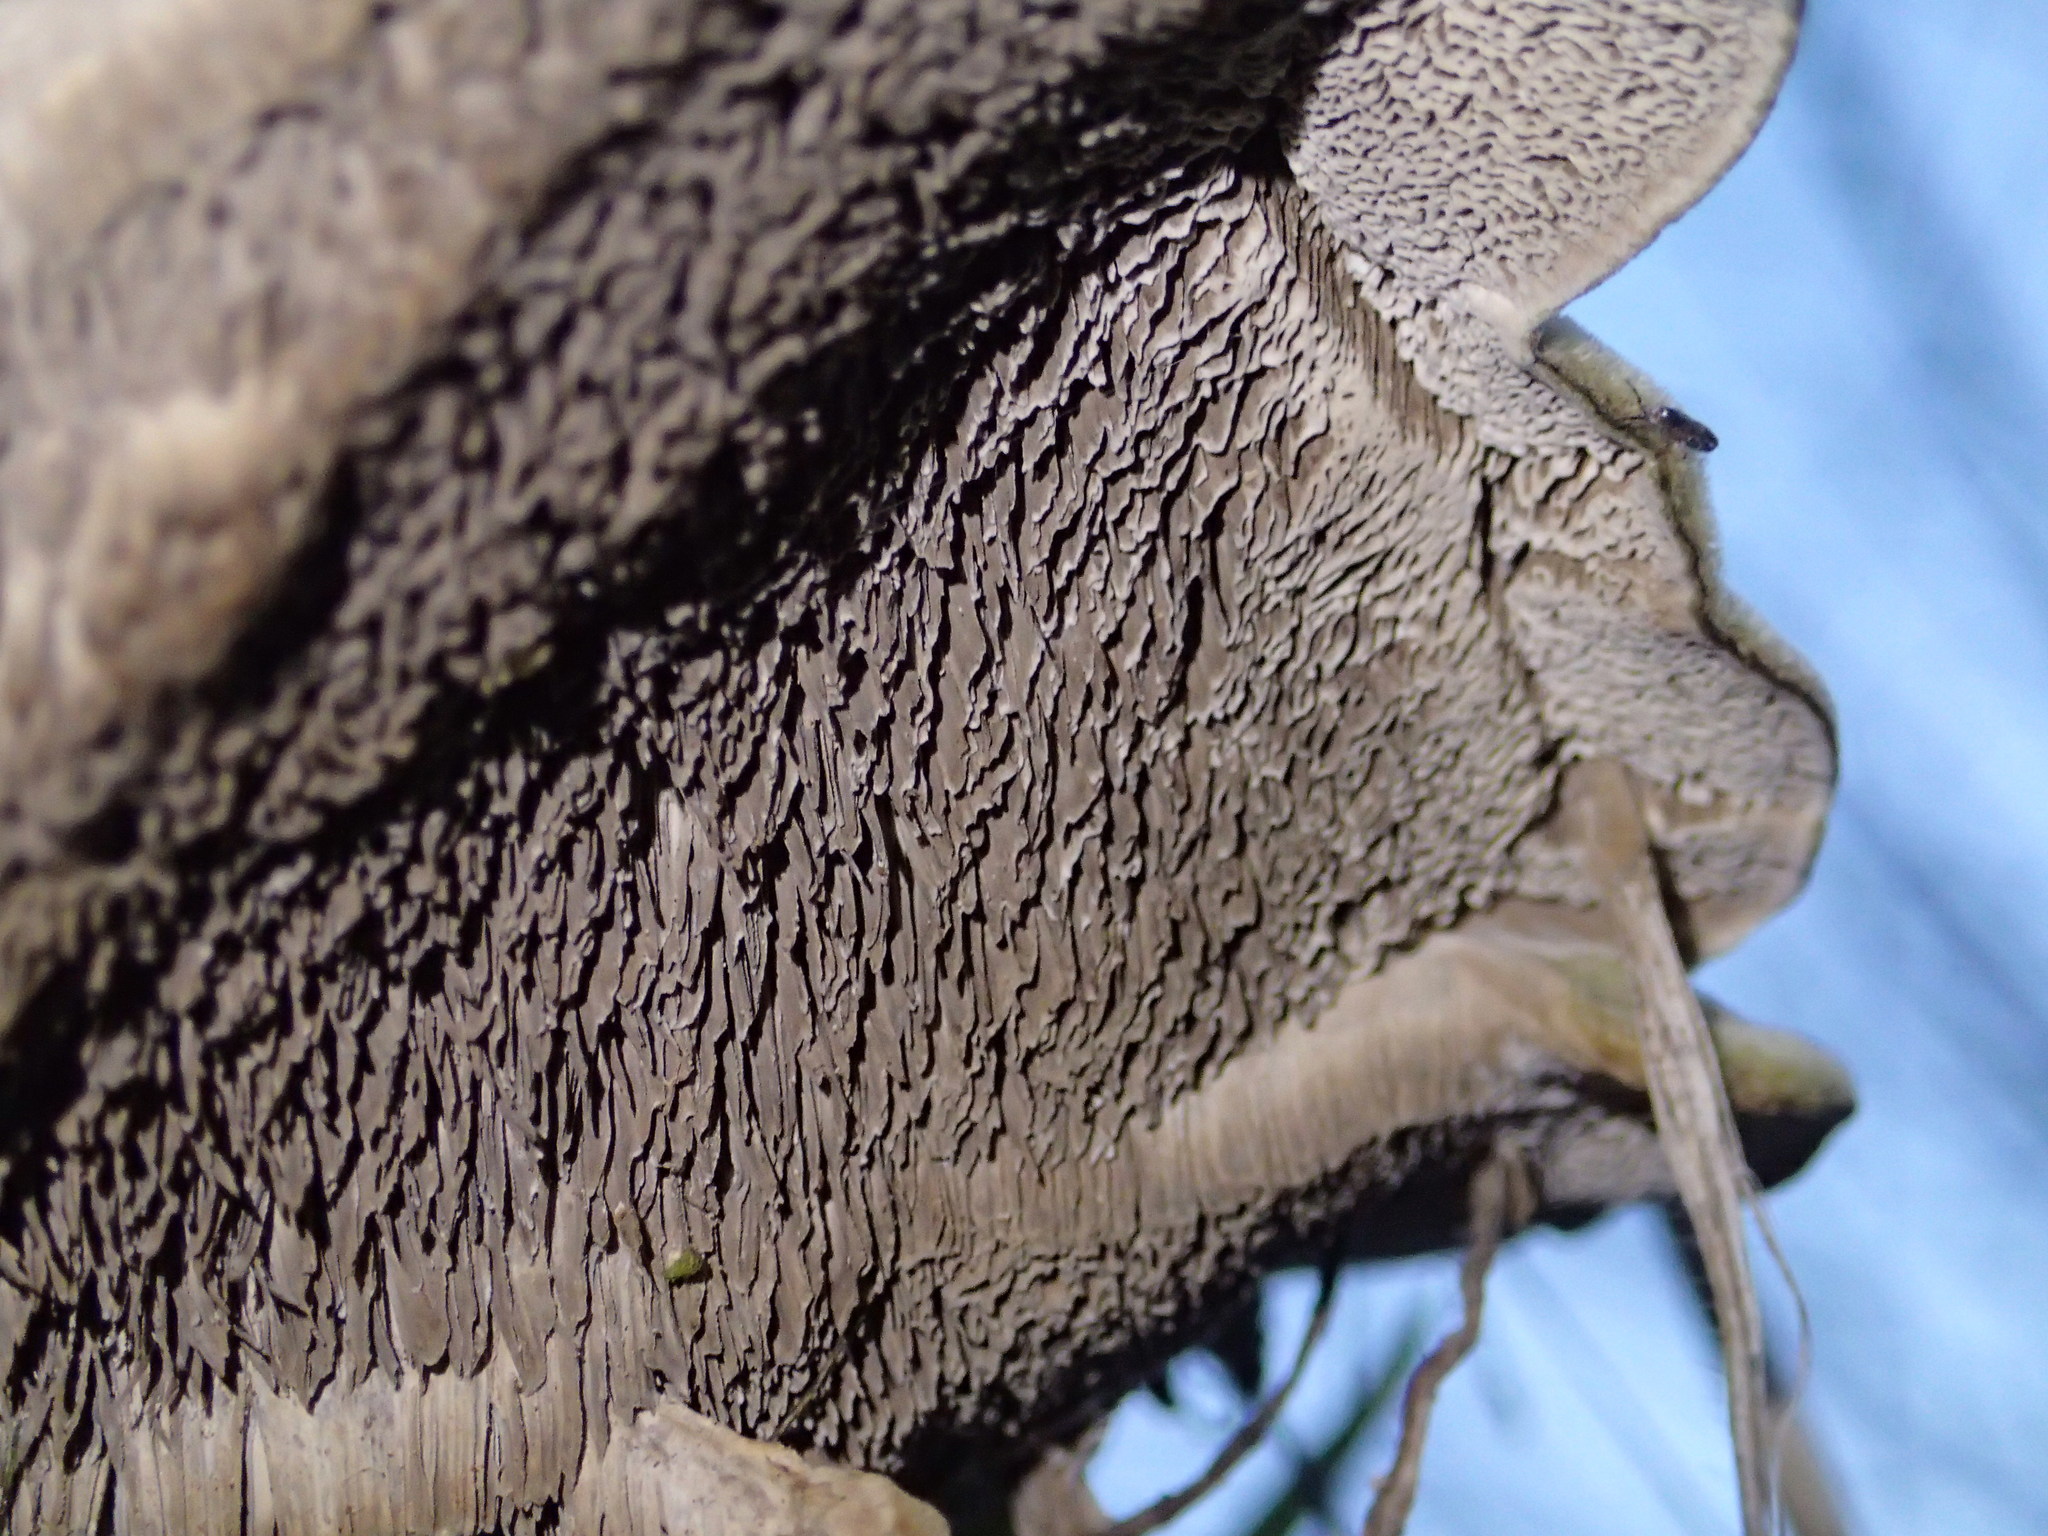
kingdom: Fungi
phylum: Basidiomycota
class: Agaricomycetes
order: Polyporales
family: Cerrenaceae
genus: Cerrena
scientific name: Cerrena unicolor
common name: Mossy maze polypore
